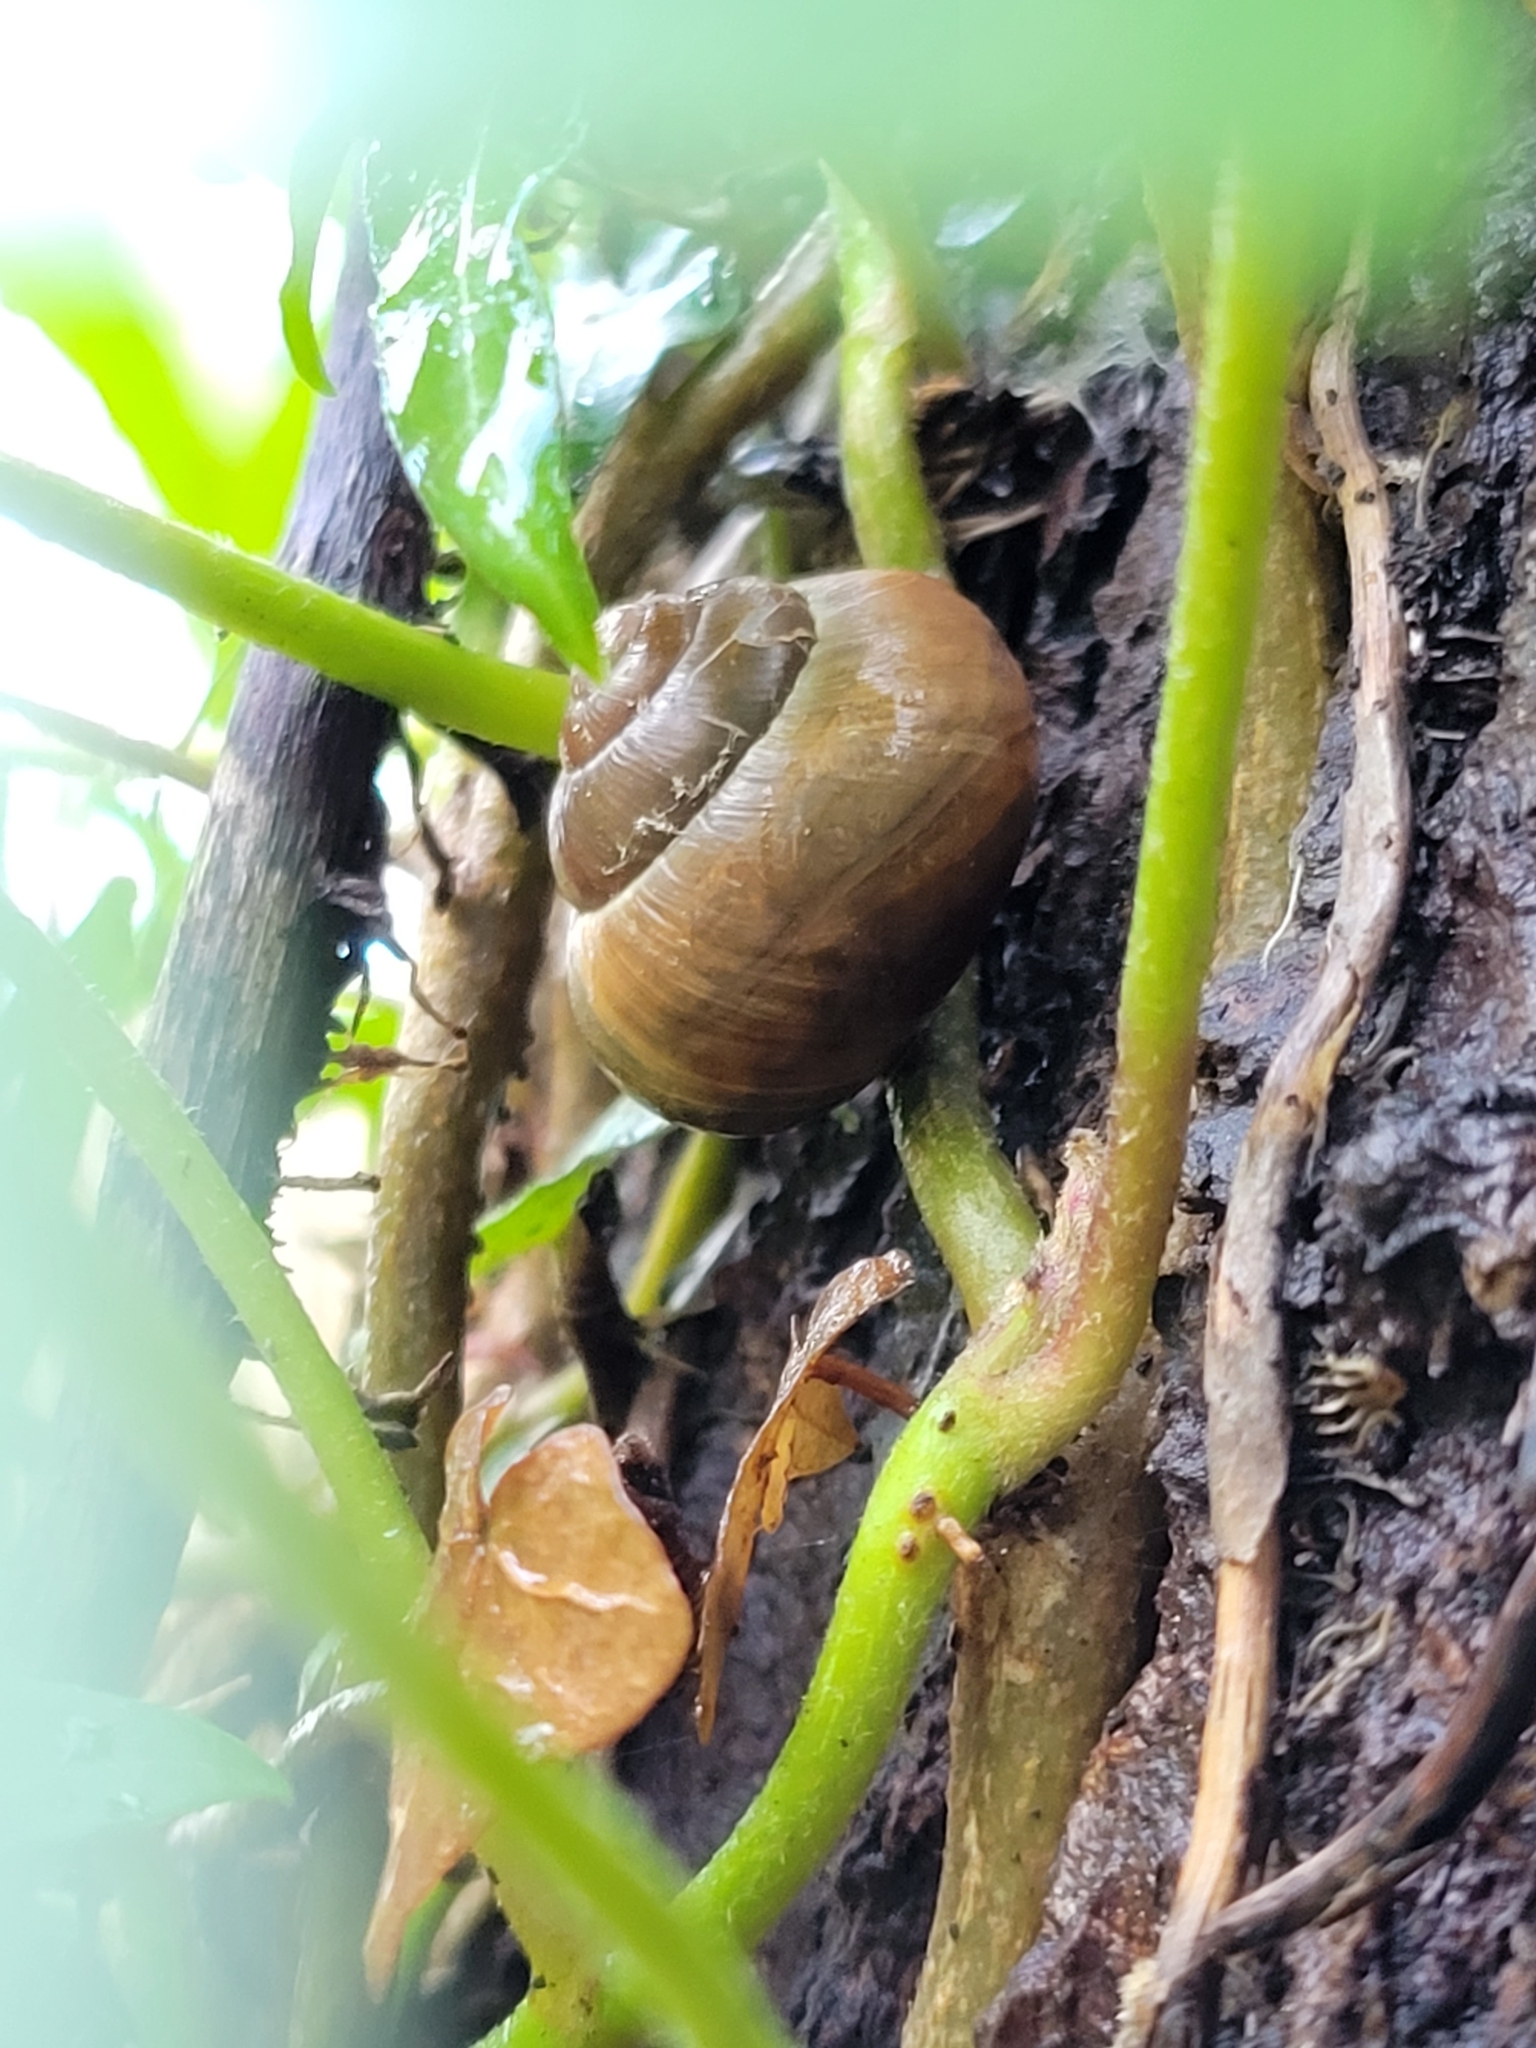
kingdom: Animalia
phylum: Mollusca
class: Gastropoda
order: Stylommatophora
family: Helicidae
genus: Cepaea
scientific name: Cepaea nemoralis
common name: Grovesnail
